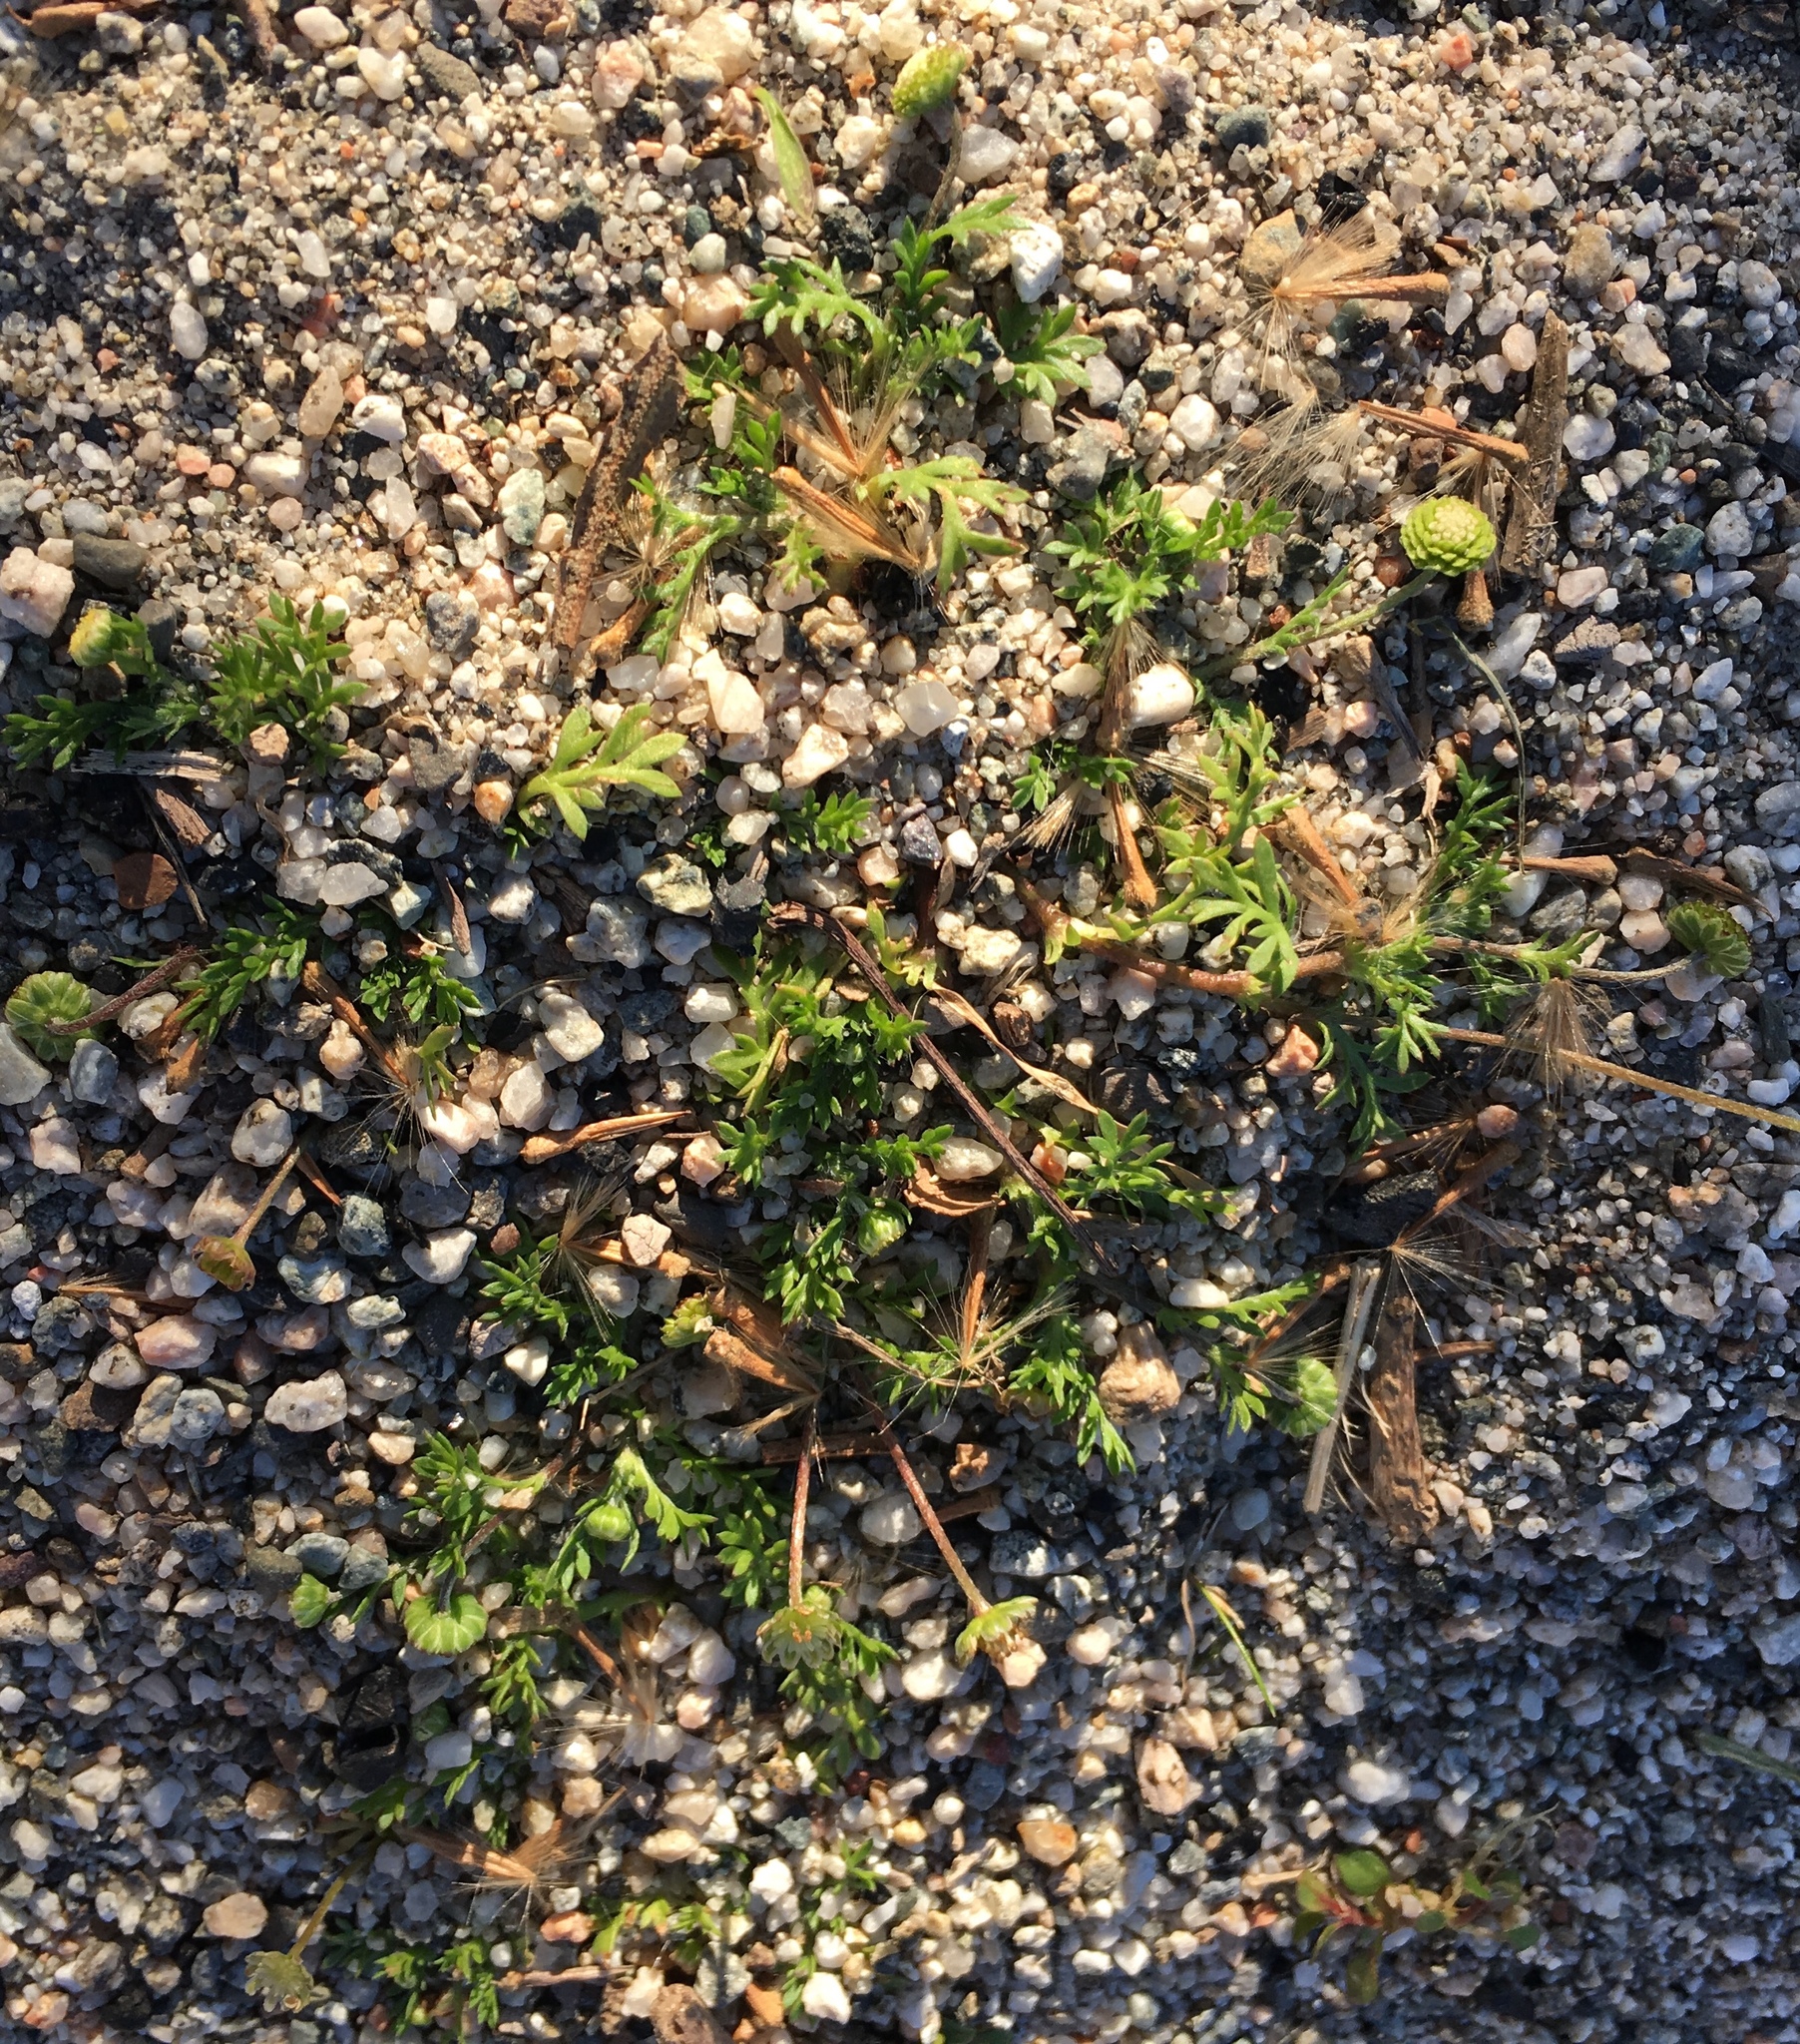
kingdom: Plantae
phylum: Tracheophyta
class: Magnoliopsida
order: Asterales
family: Asteraceae
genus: Cotula
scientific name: Cotula australis
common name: Australian waterbuttons
